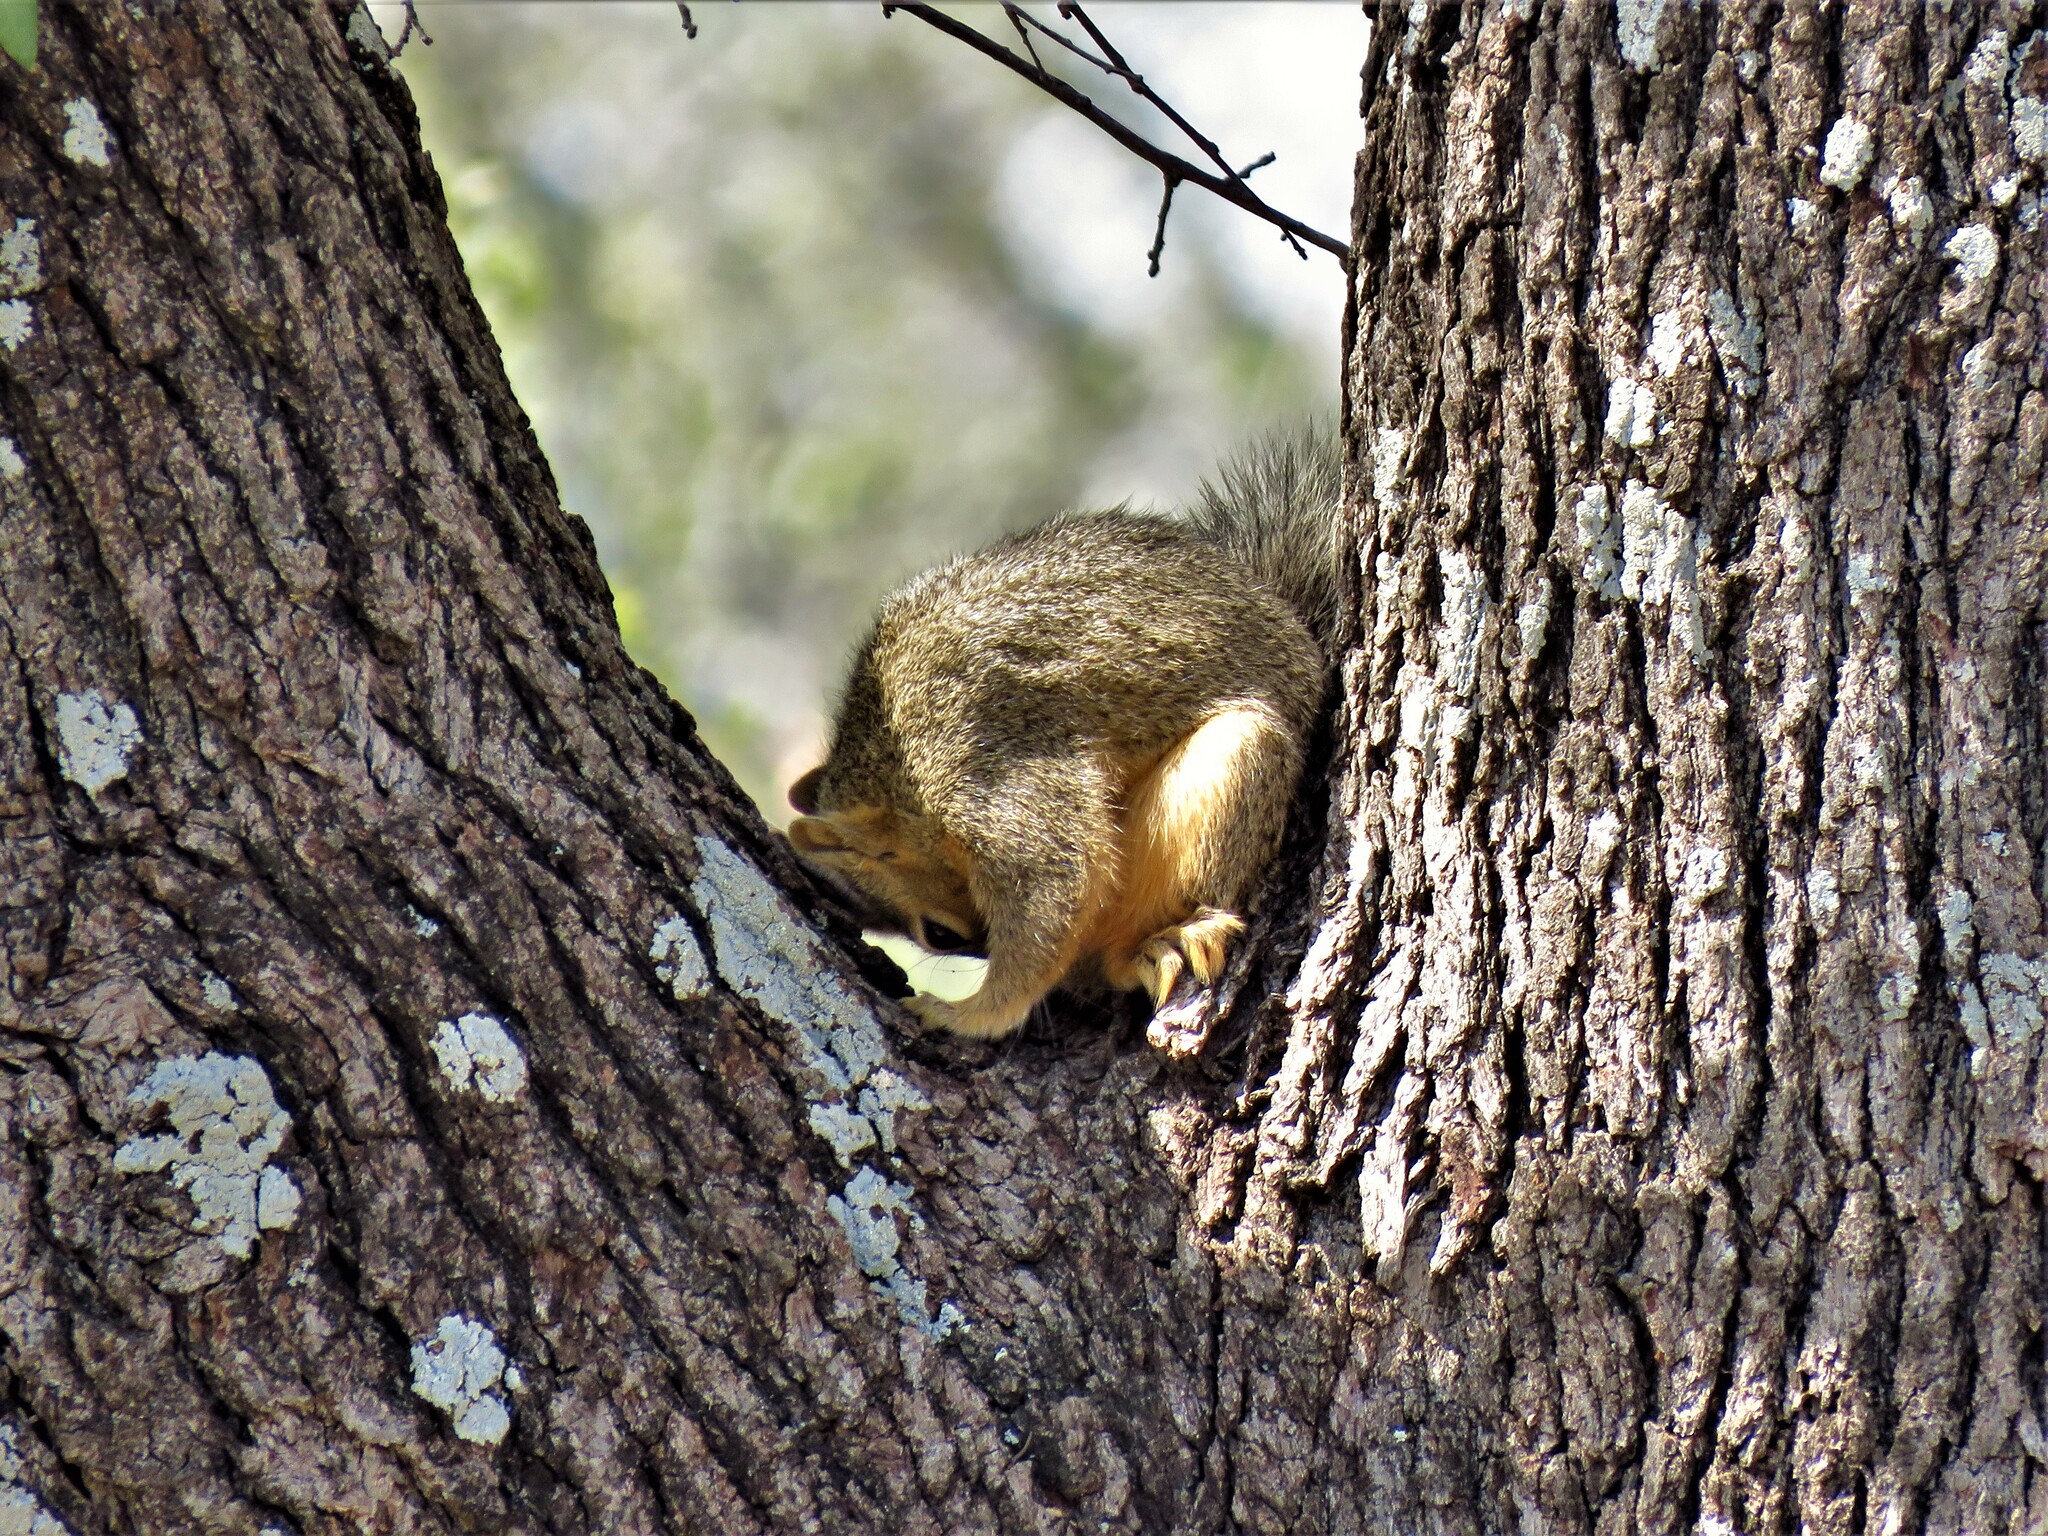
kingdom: Animalia
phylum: Chordata
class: Mammalia
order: Rodentia
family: Sciuridae
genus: Sciurus
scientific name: Sciurus niger
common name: Fox squirrel
